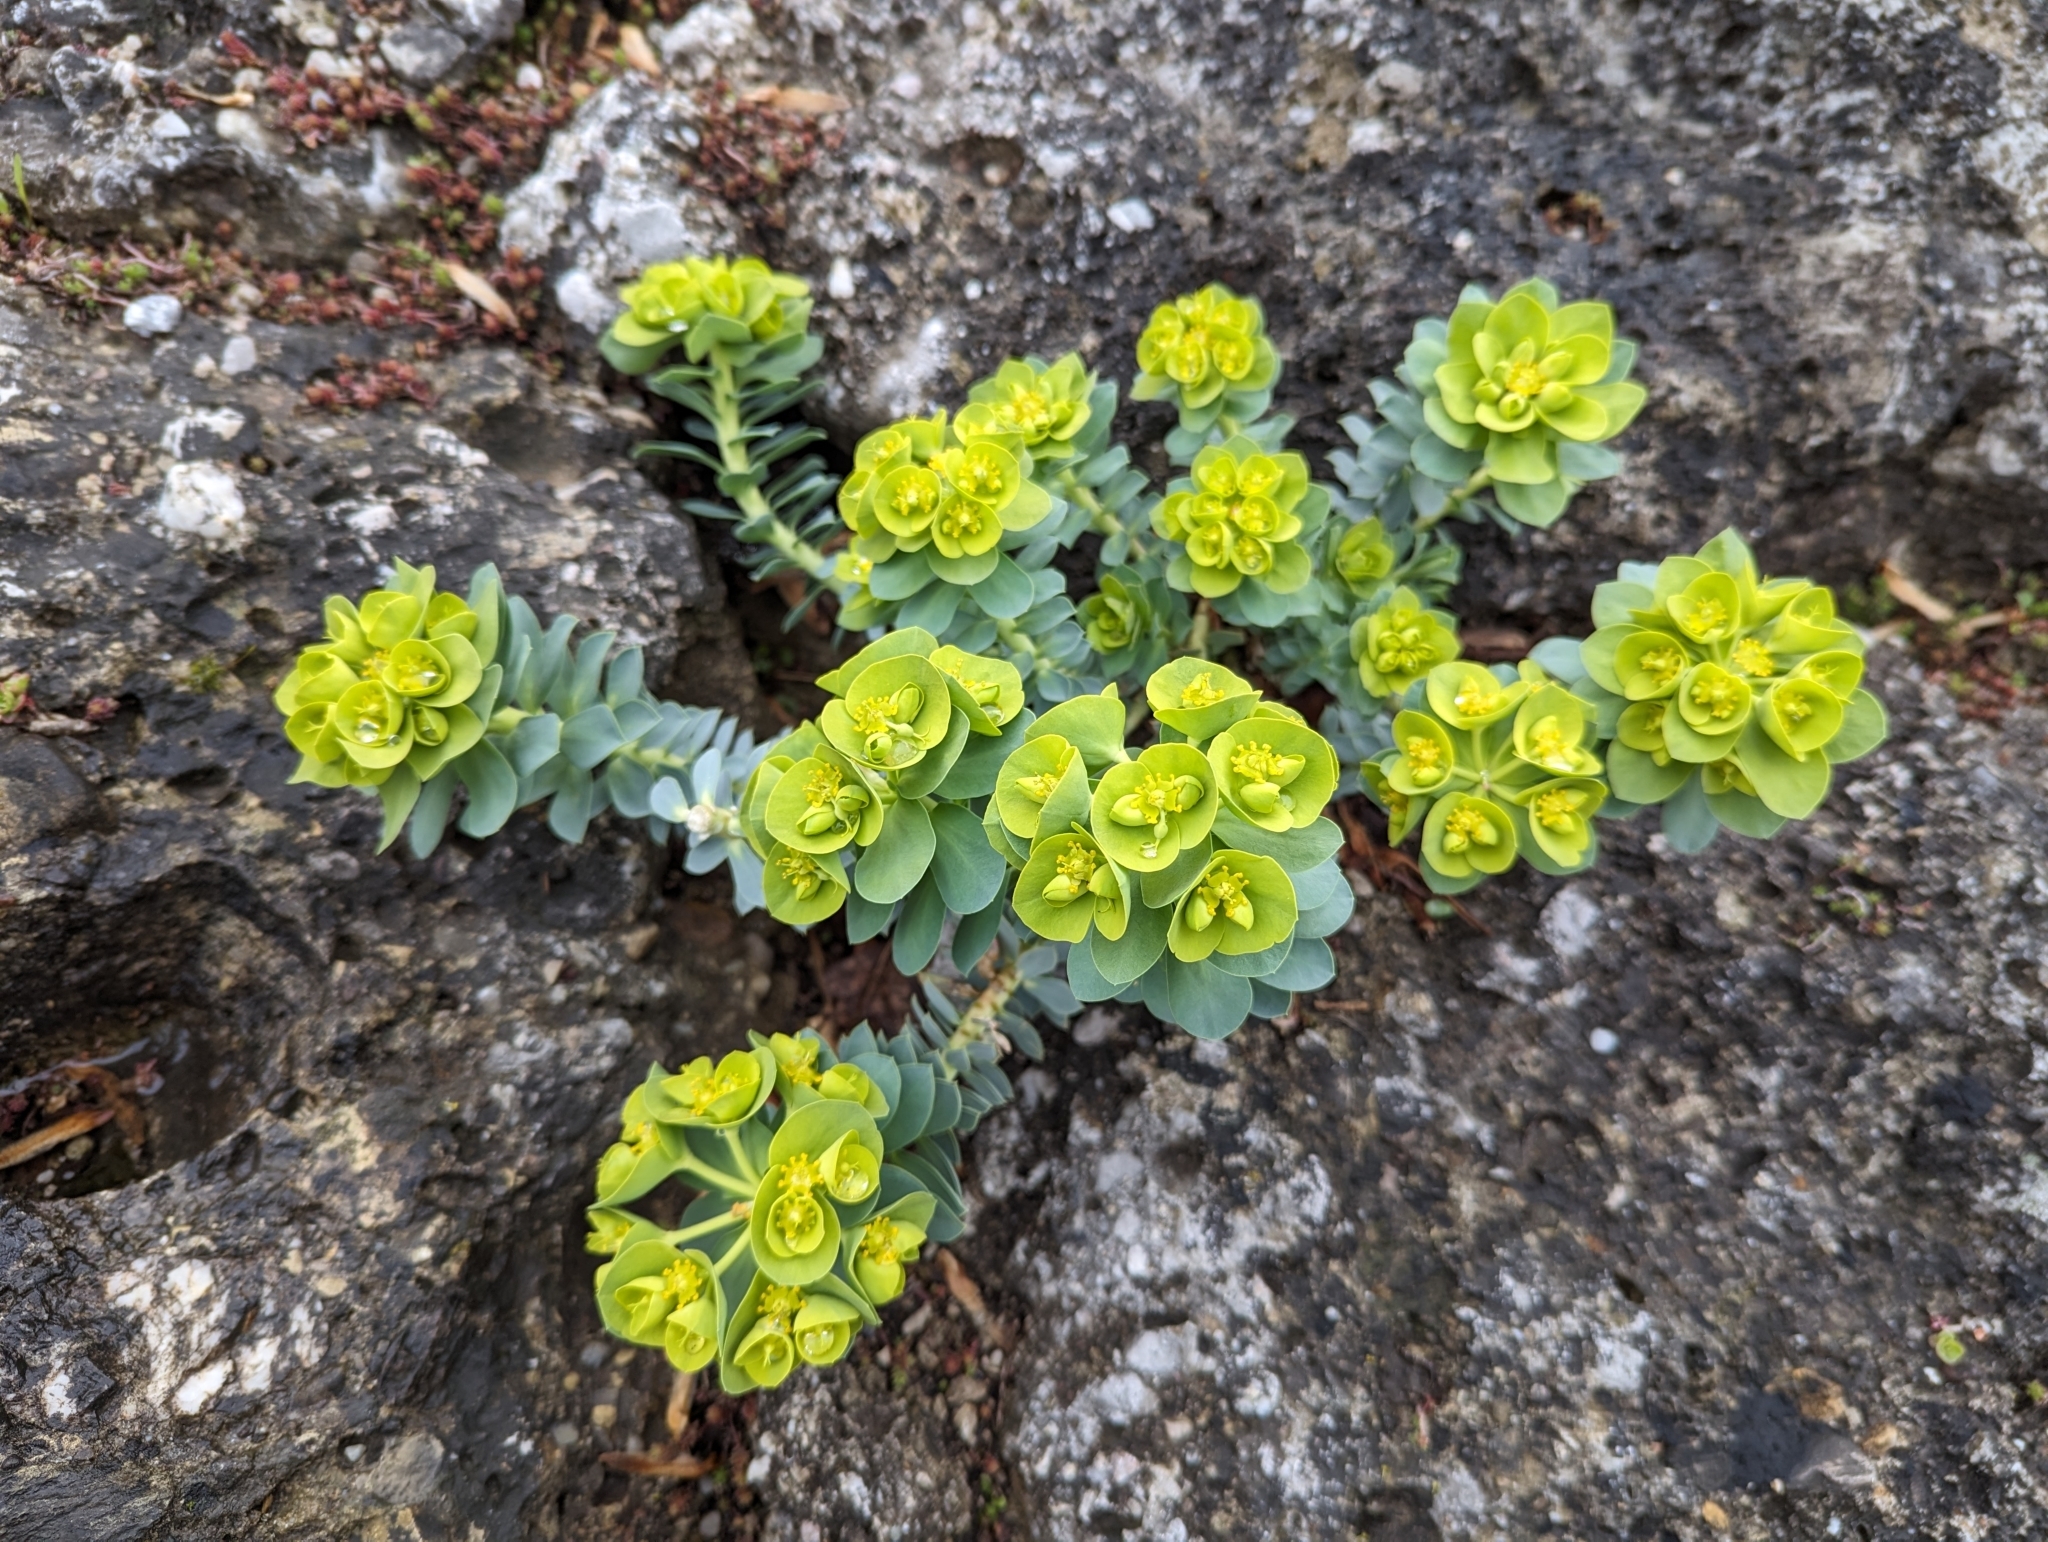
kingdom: Plantae
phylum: Tracheophyta
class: Magnoliopsida
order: Malpighiales
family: Euphorbiaceae
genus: Euphorbia
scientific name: Euphorbia myrsinites
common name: Myrtle spurge
